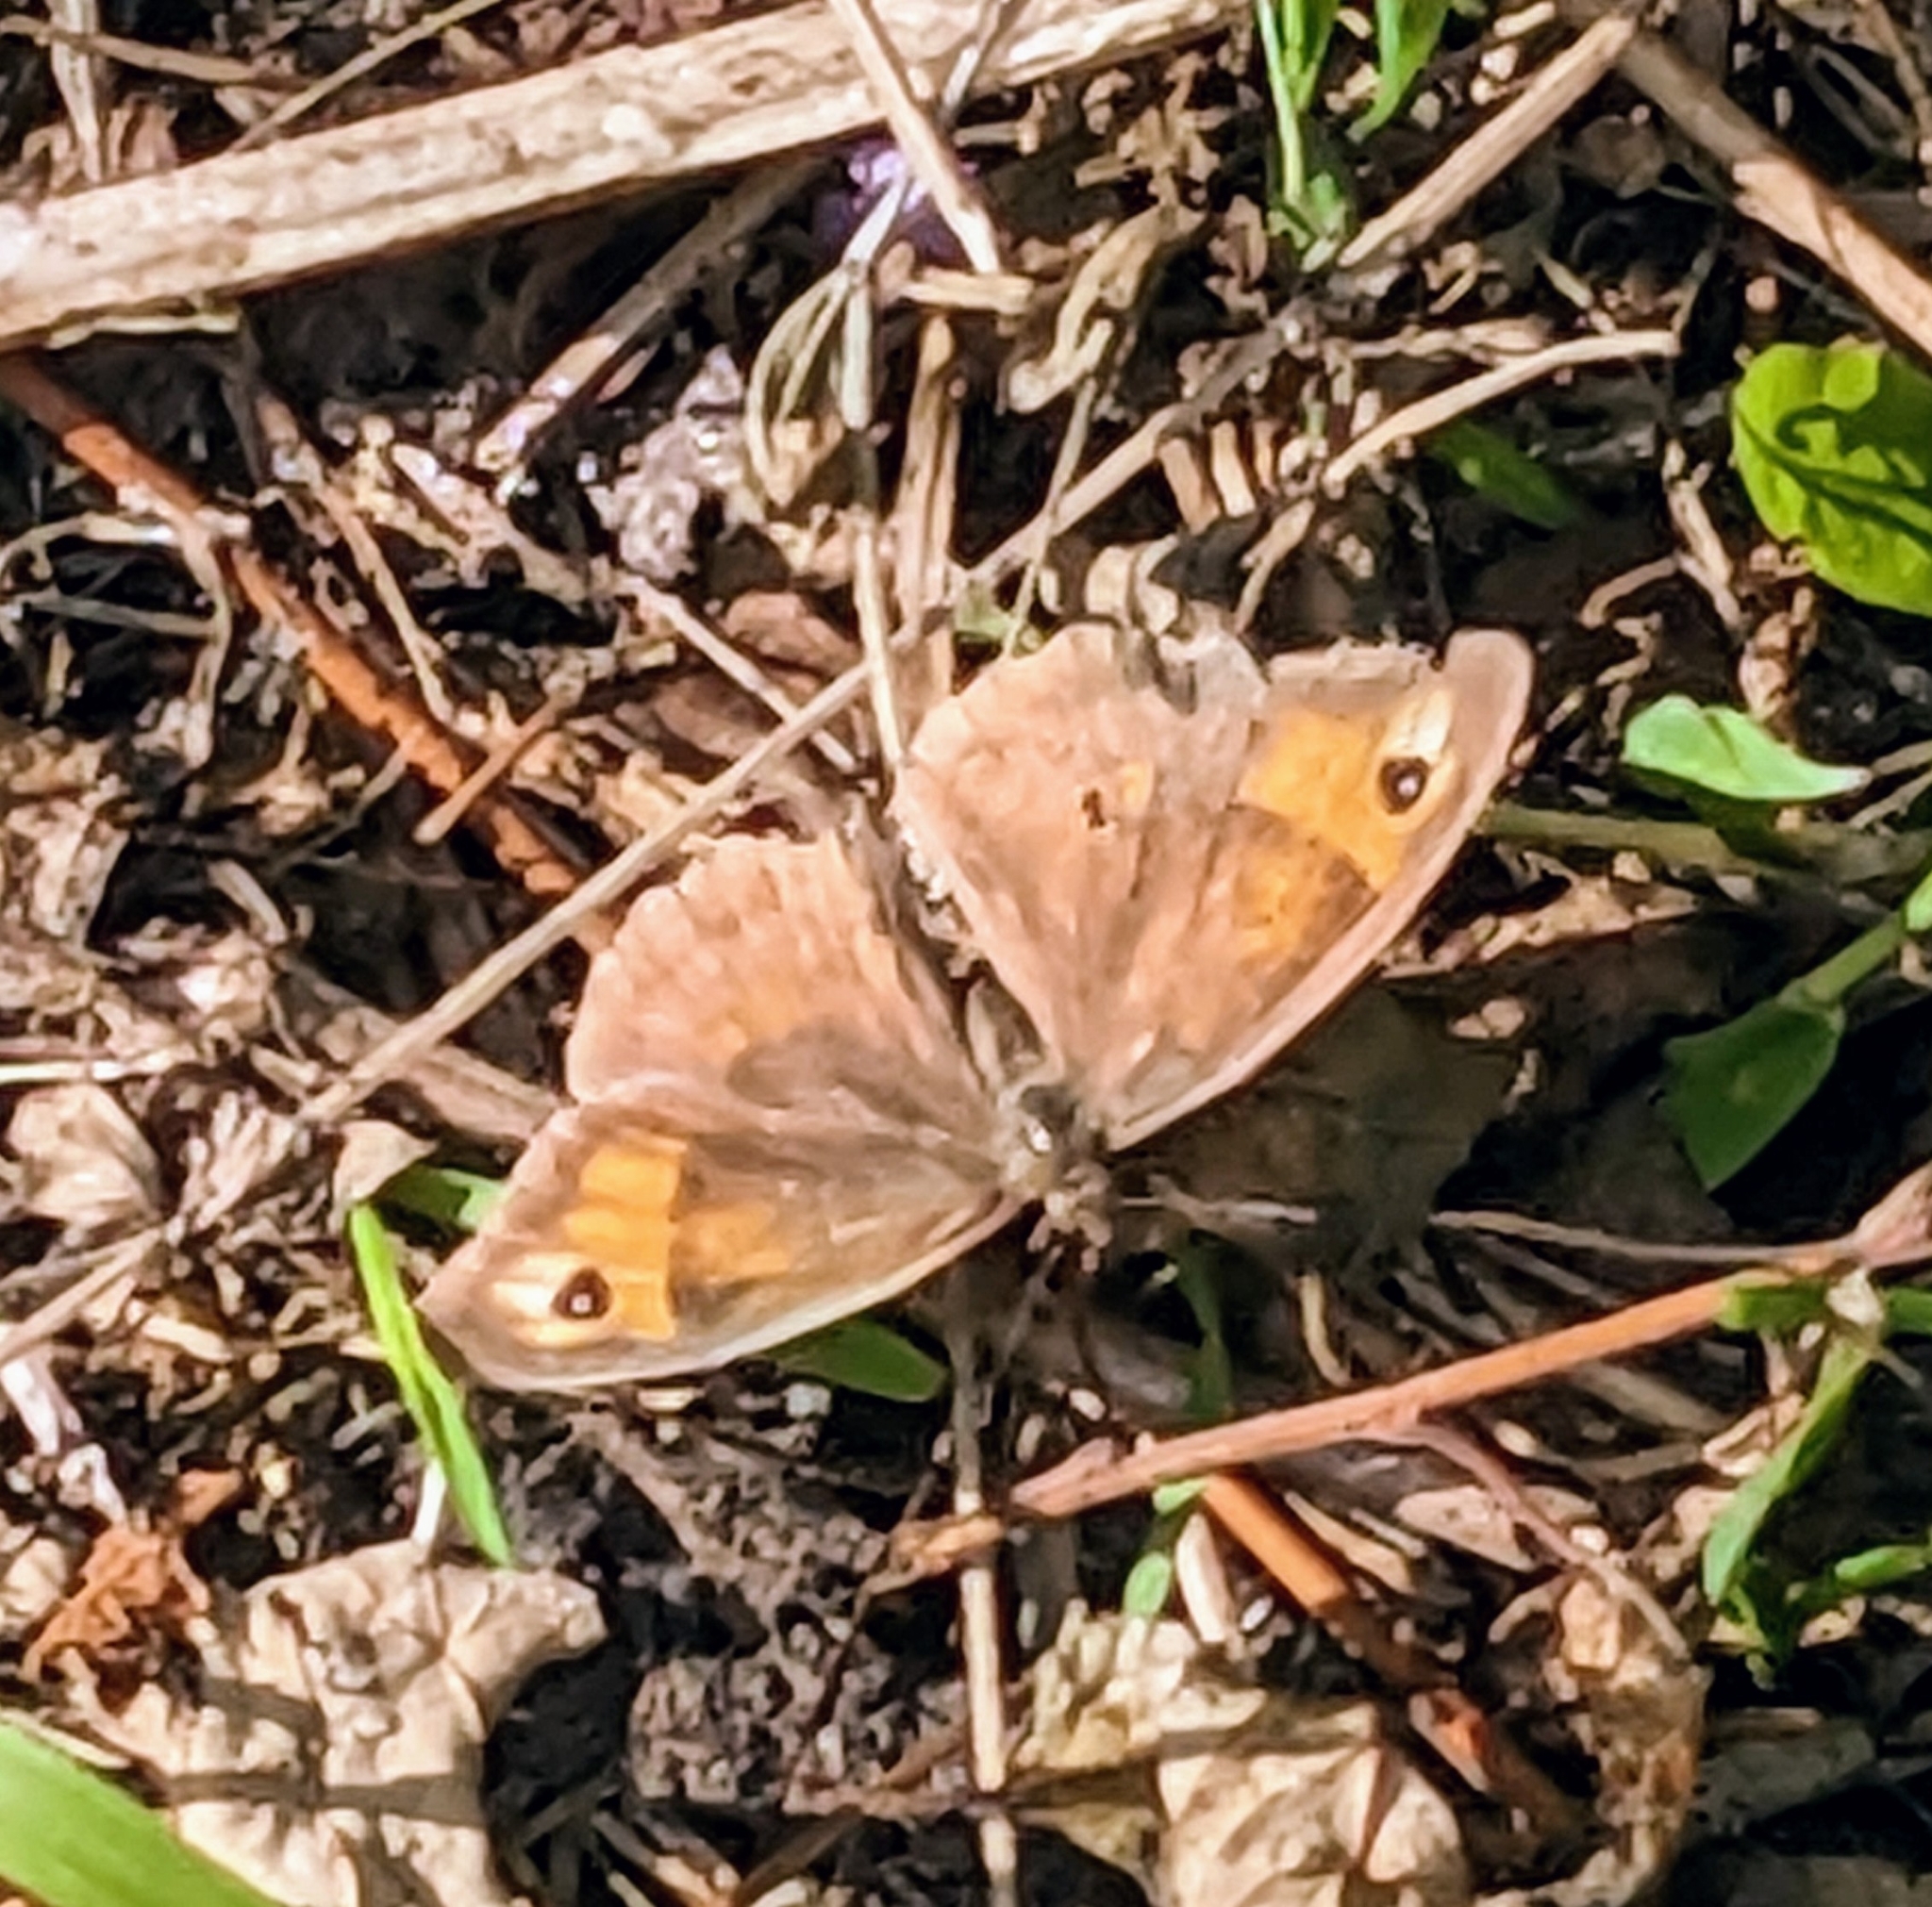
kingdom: Animalia
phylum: Arthropoda
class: Insecta
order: Lepidoptera
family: Nymphalidae
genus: Maniola
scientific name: Maniola jurtina
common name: Meadow brown
